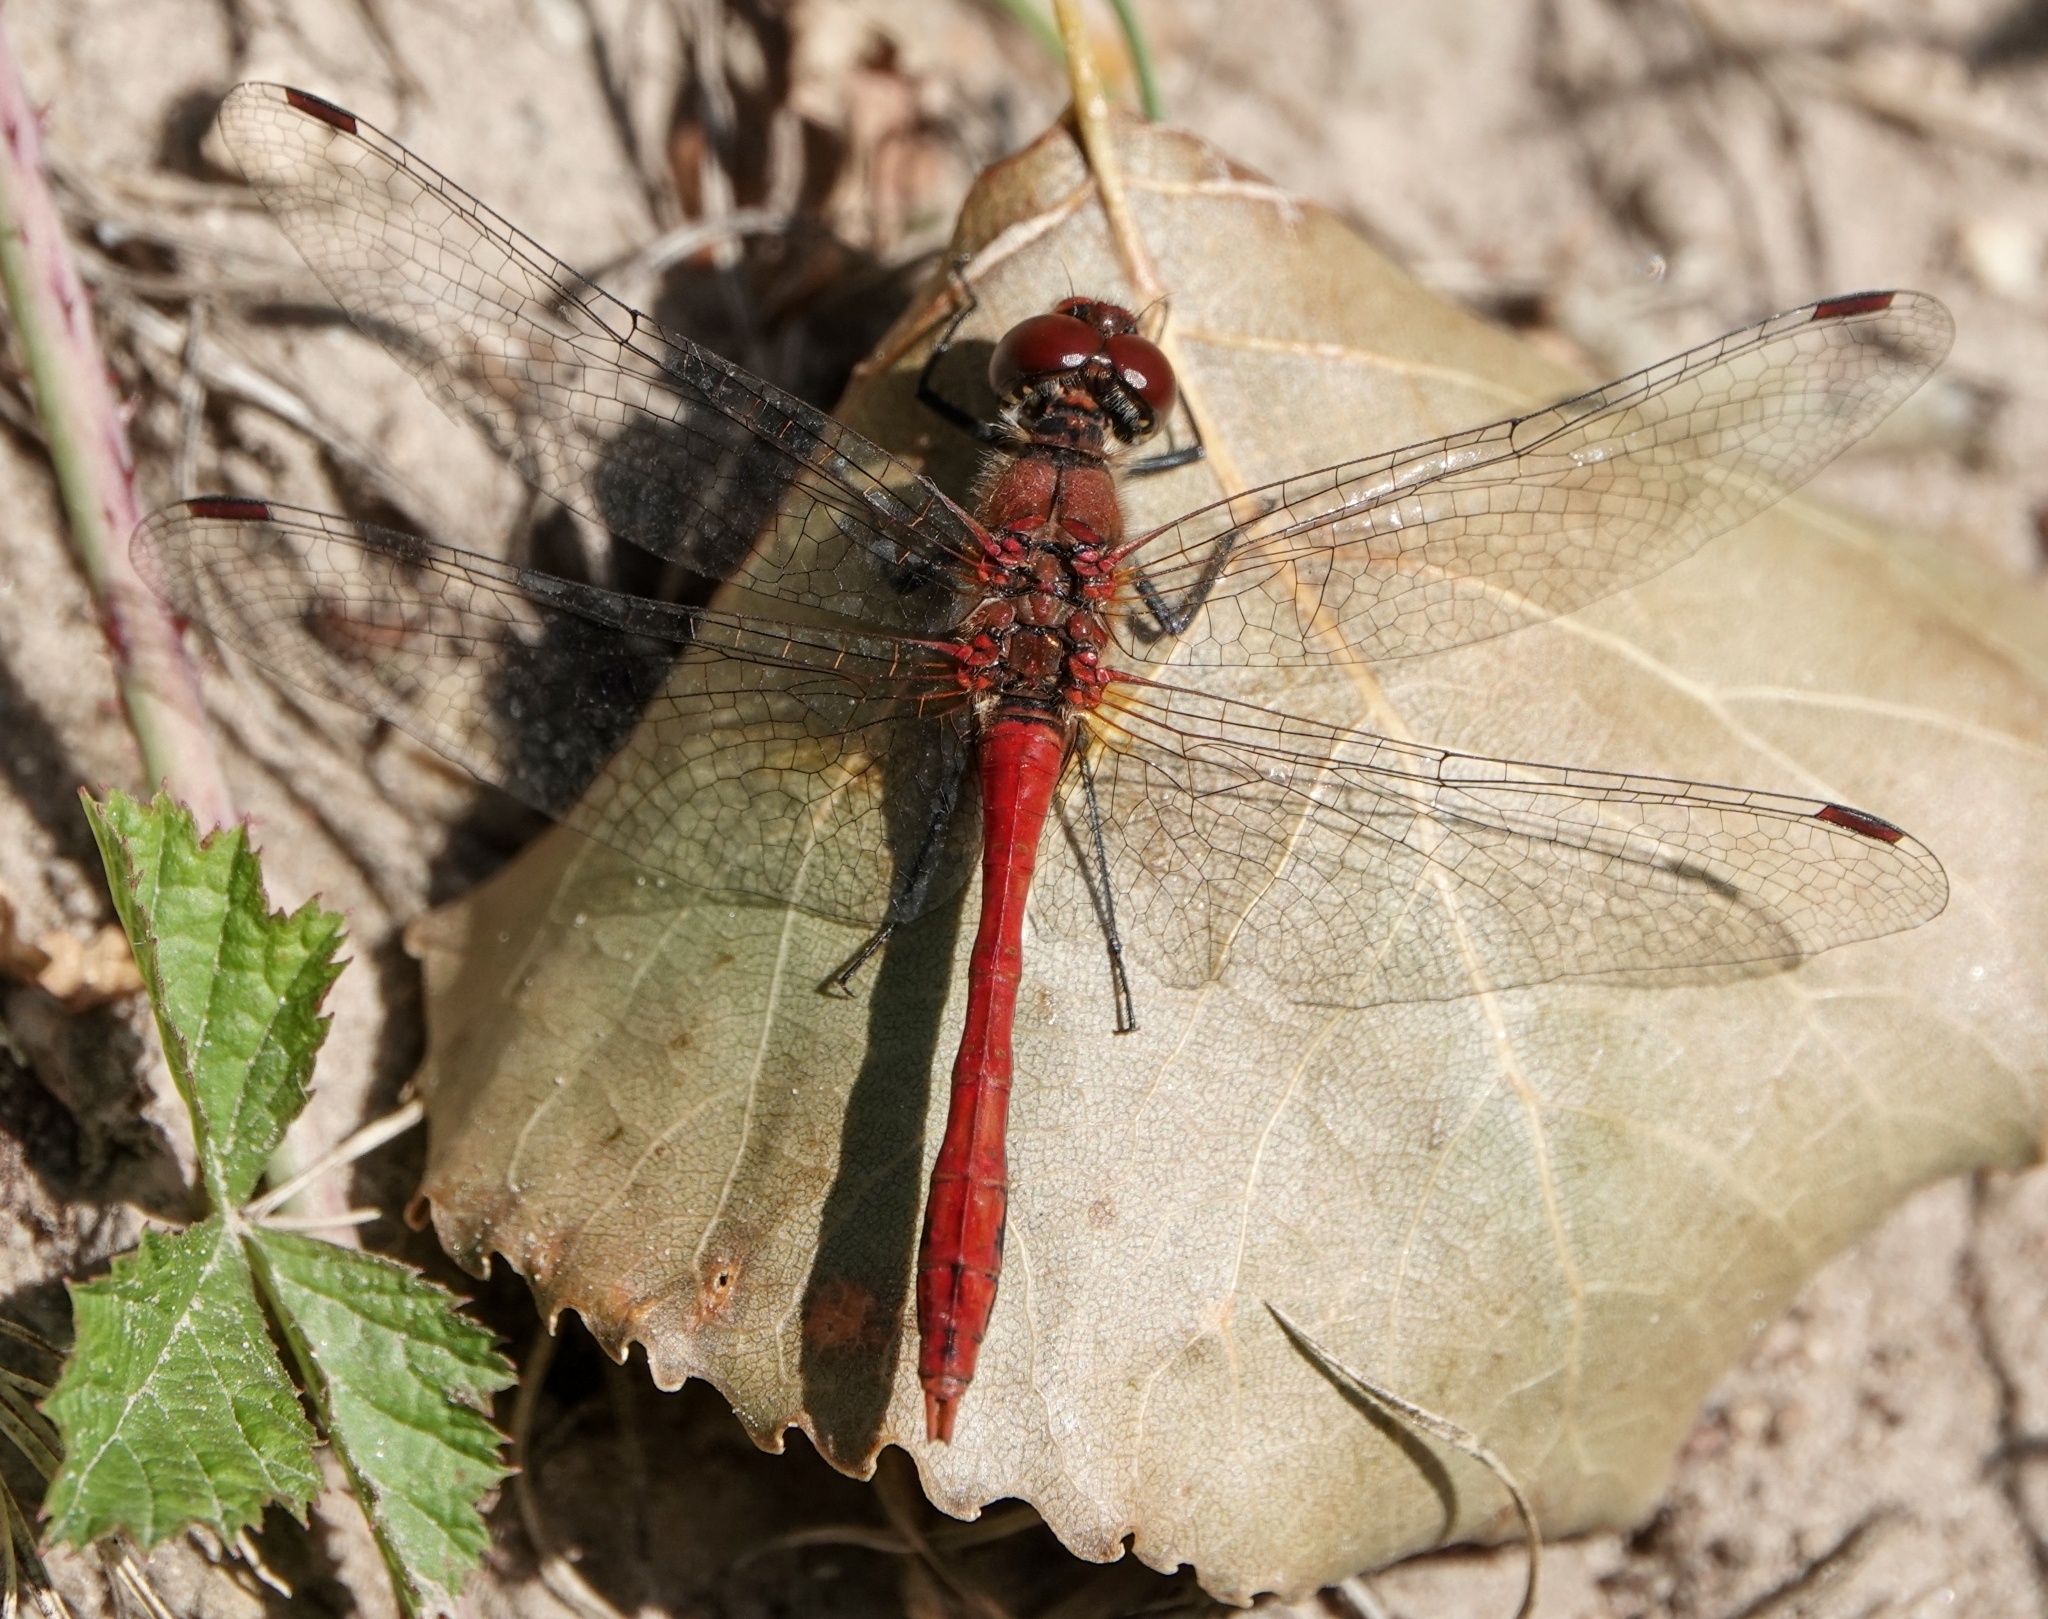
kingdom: Animalia
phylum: Arthropoda
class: Insecta
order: Odonata
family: Libellulidae
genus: Sympetrum
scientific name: Sympetrum sanguineum
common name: Ruddy darter
